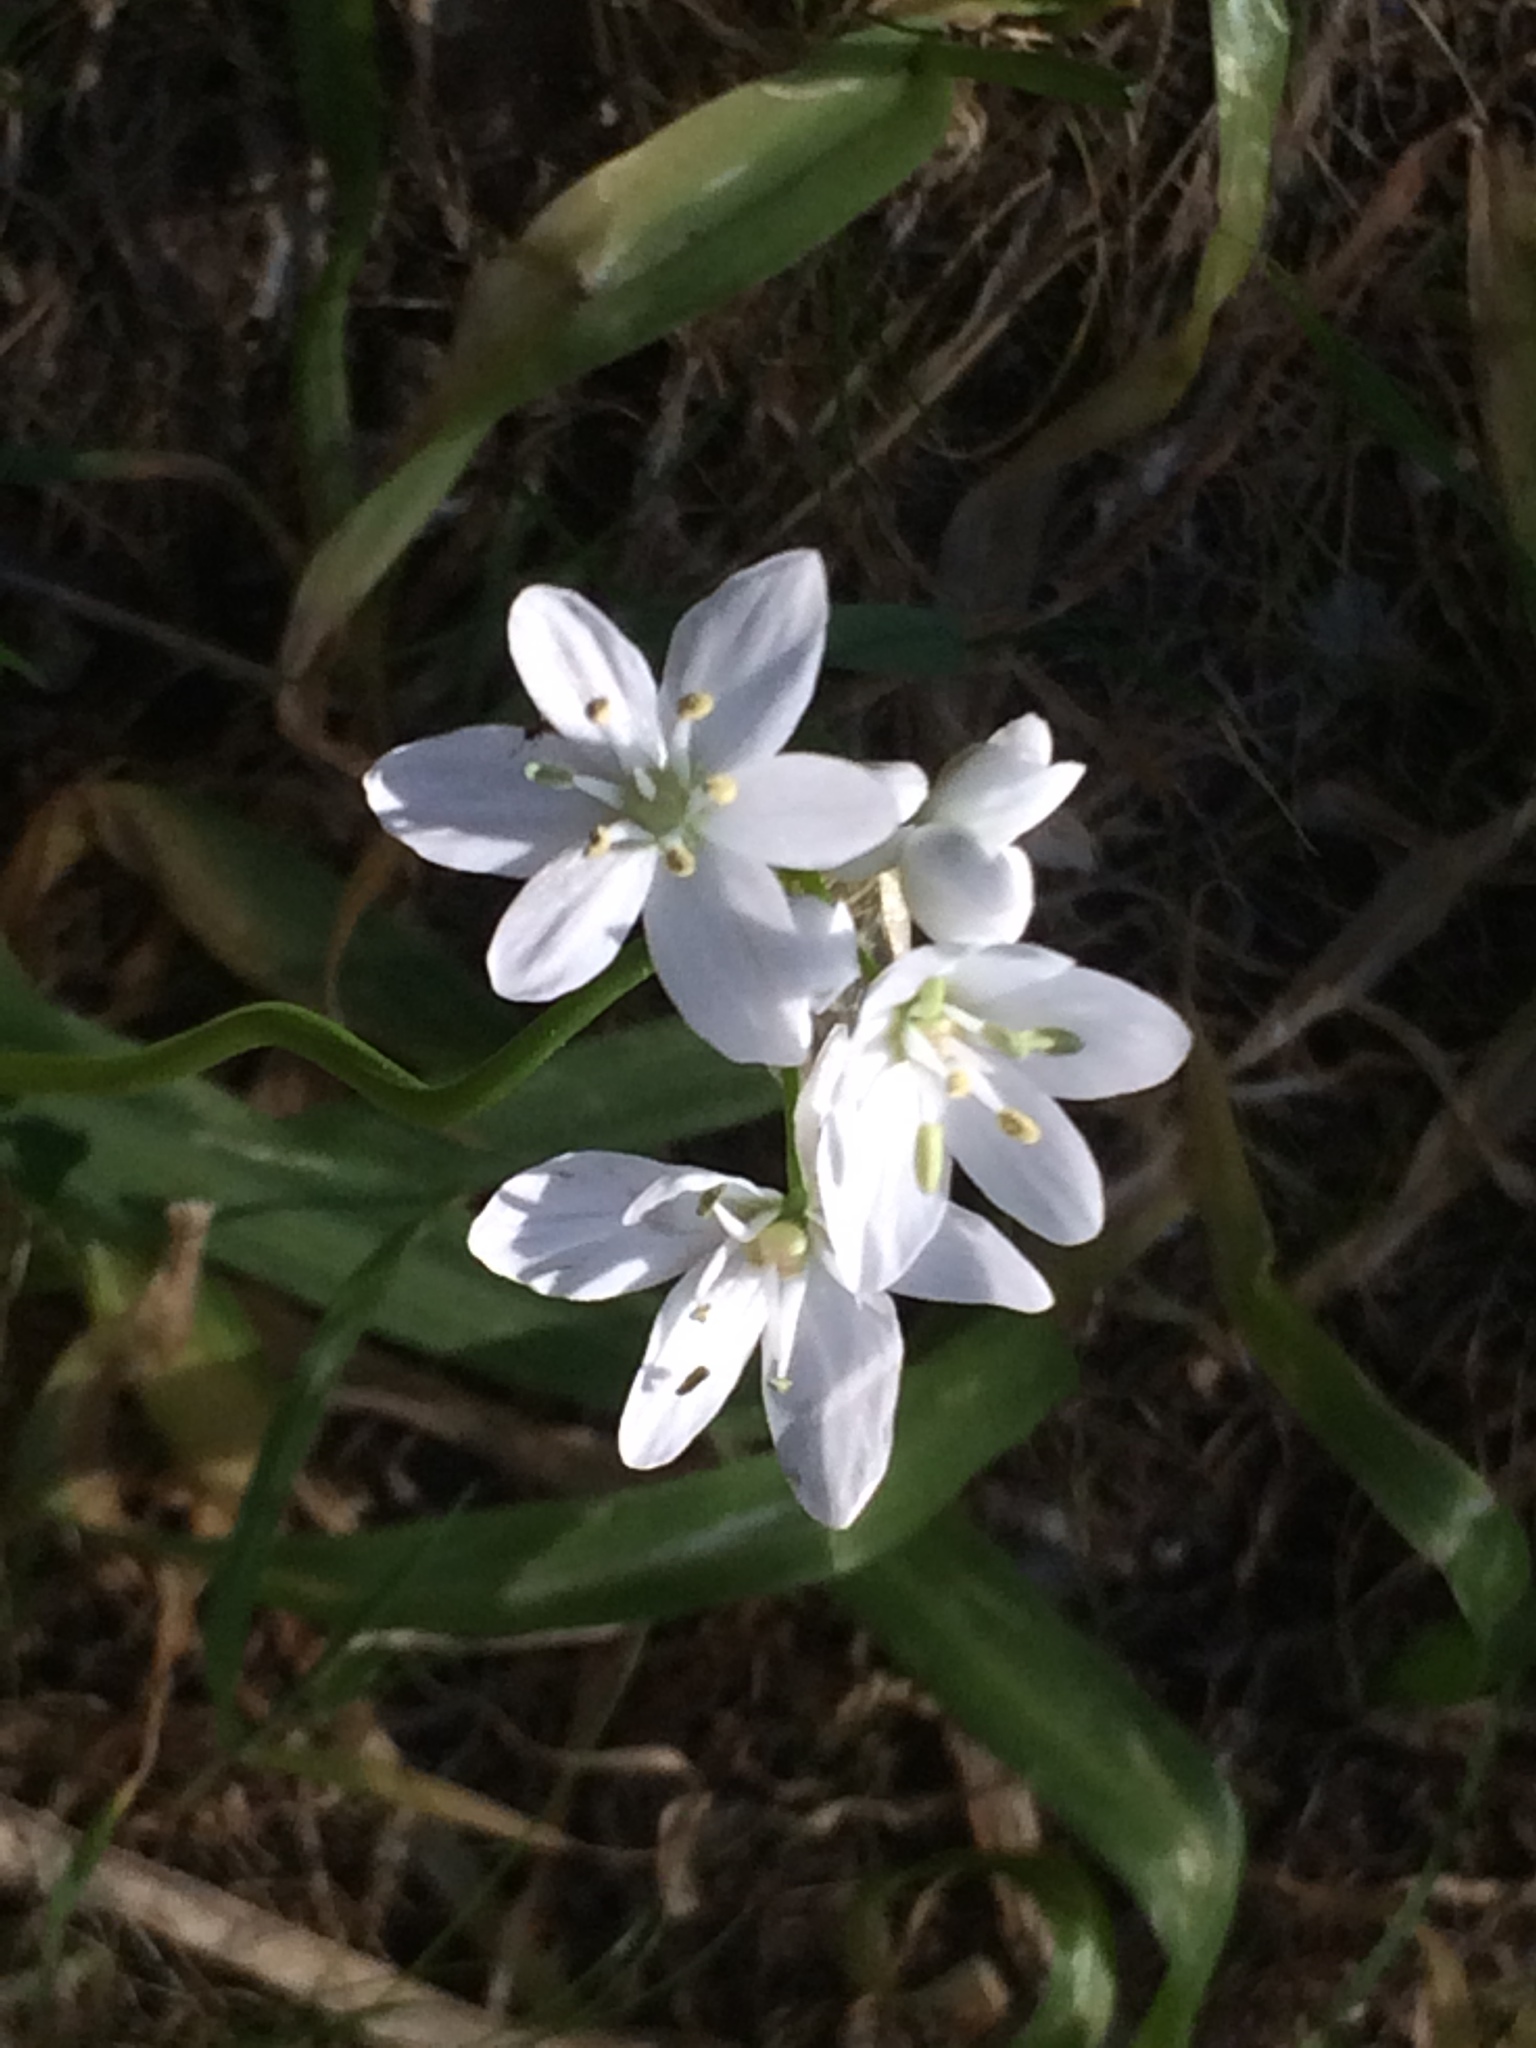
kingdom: Plantae
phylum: Tracheophyta
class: Liliopsida
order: Asparagales
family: Amaryllidaceae
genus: Allium
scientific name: Allium neapolitanum
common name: Neapolitan garlic
